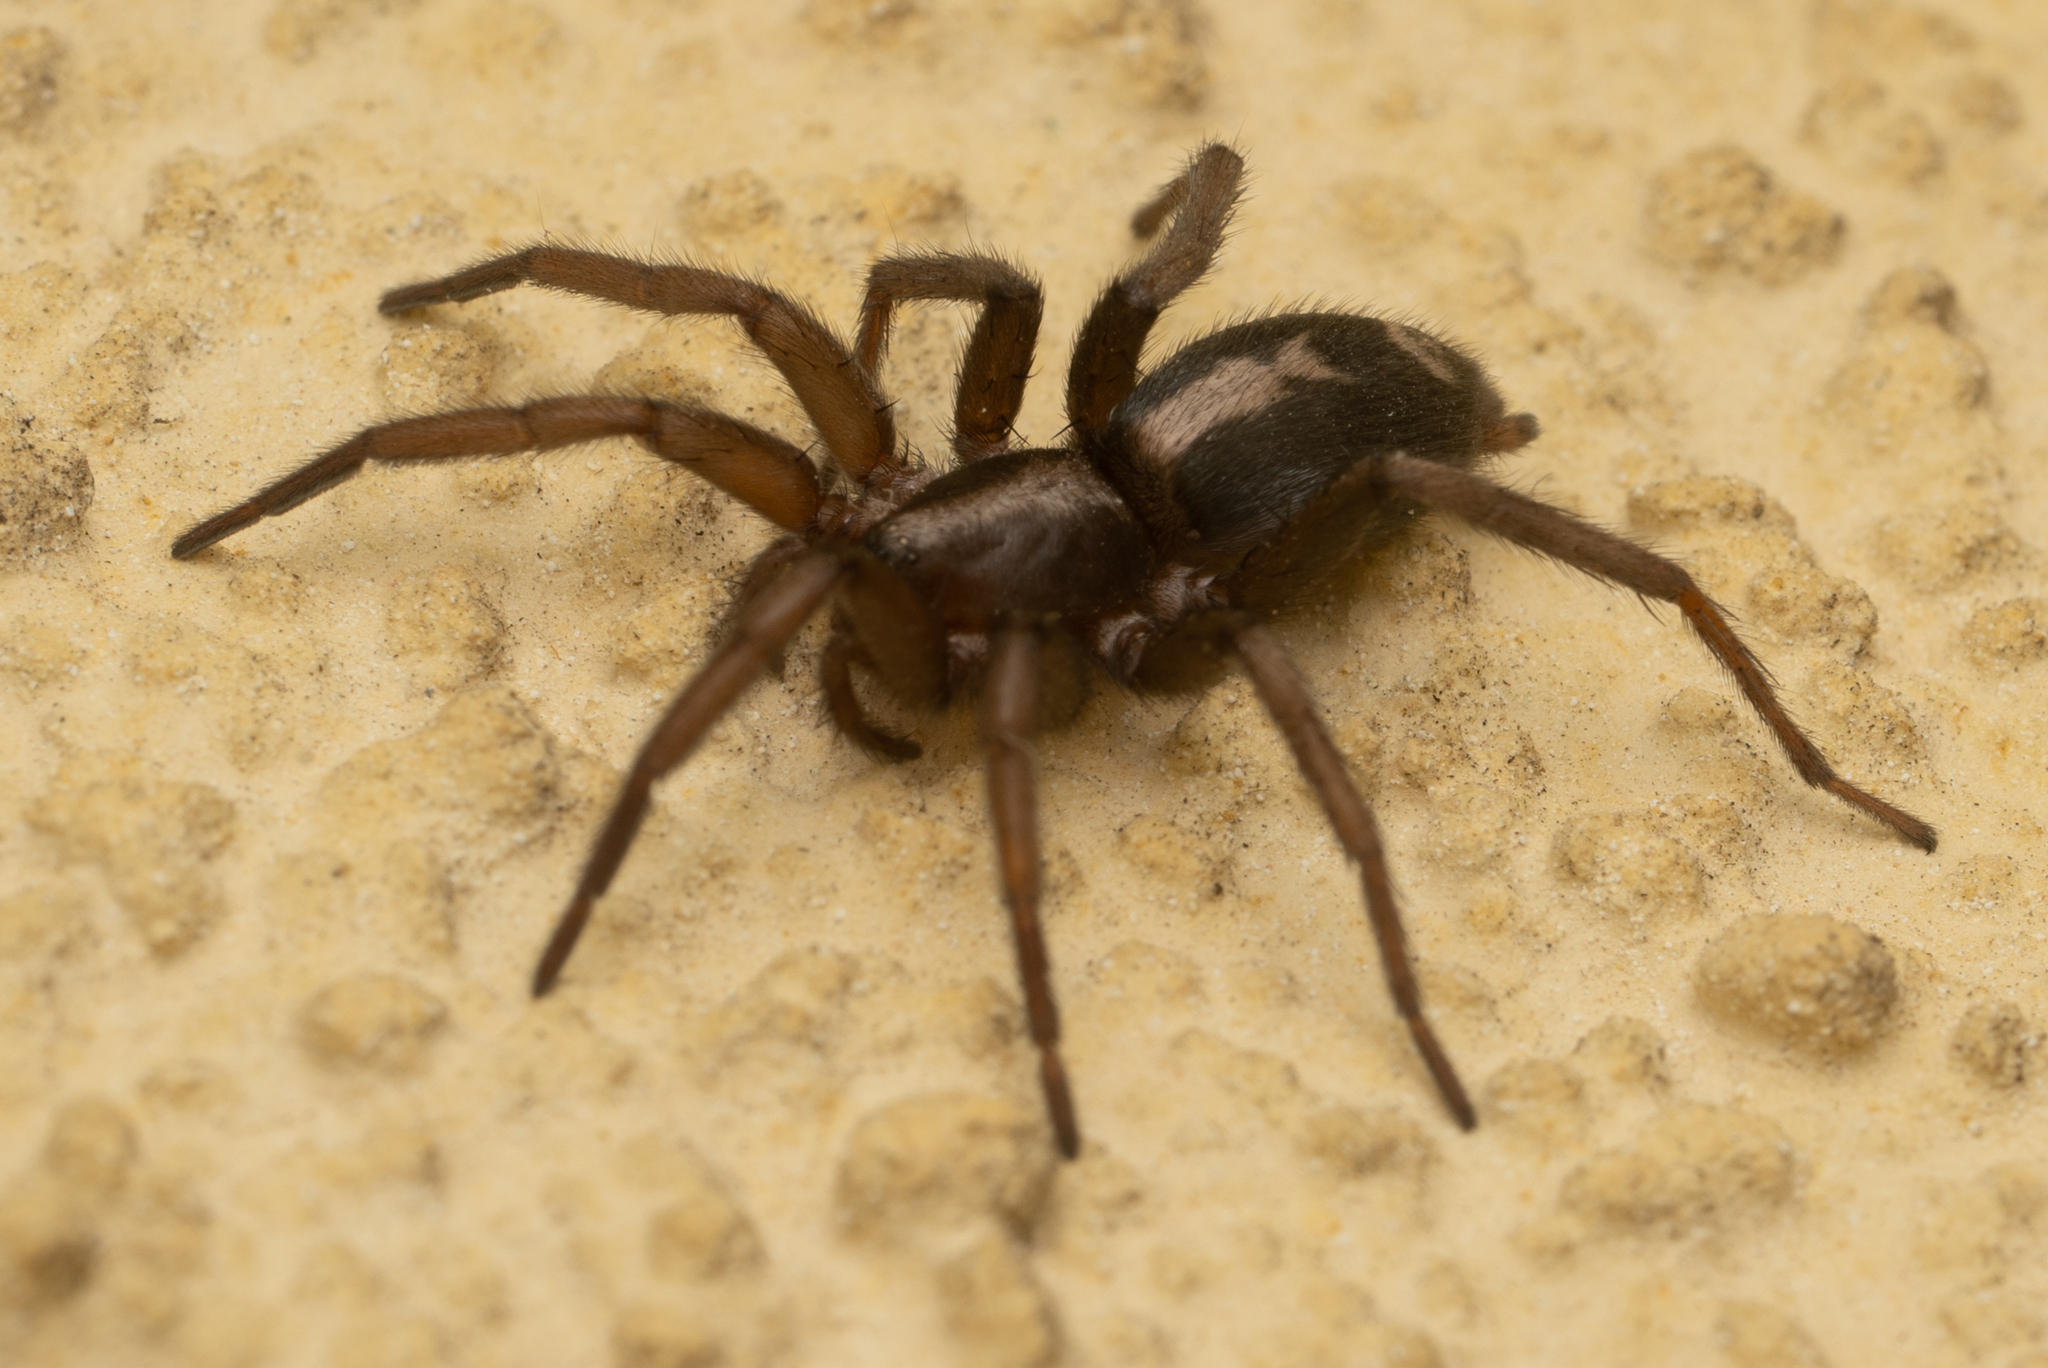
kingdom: Animalia
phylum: Arthropoda
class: Arachnida
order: Araneae
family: Gnaphosidae
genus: Herpyllus
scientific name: Herpyllus propinquus
